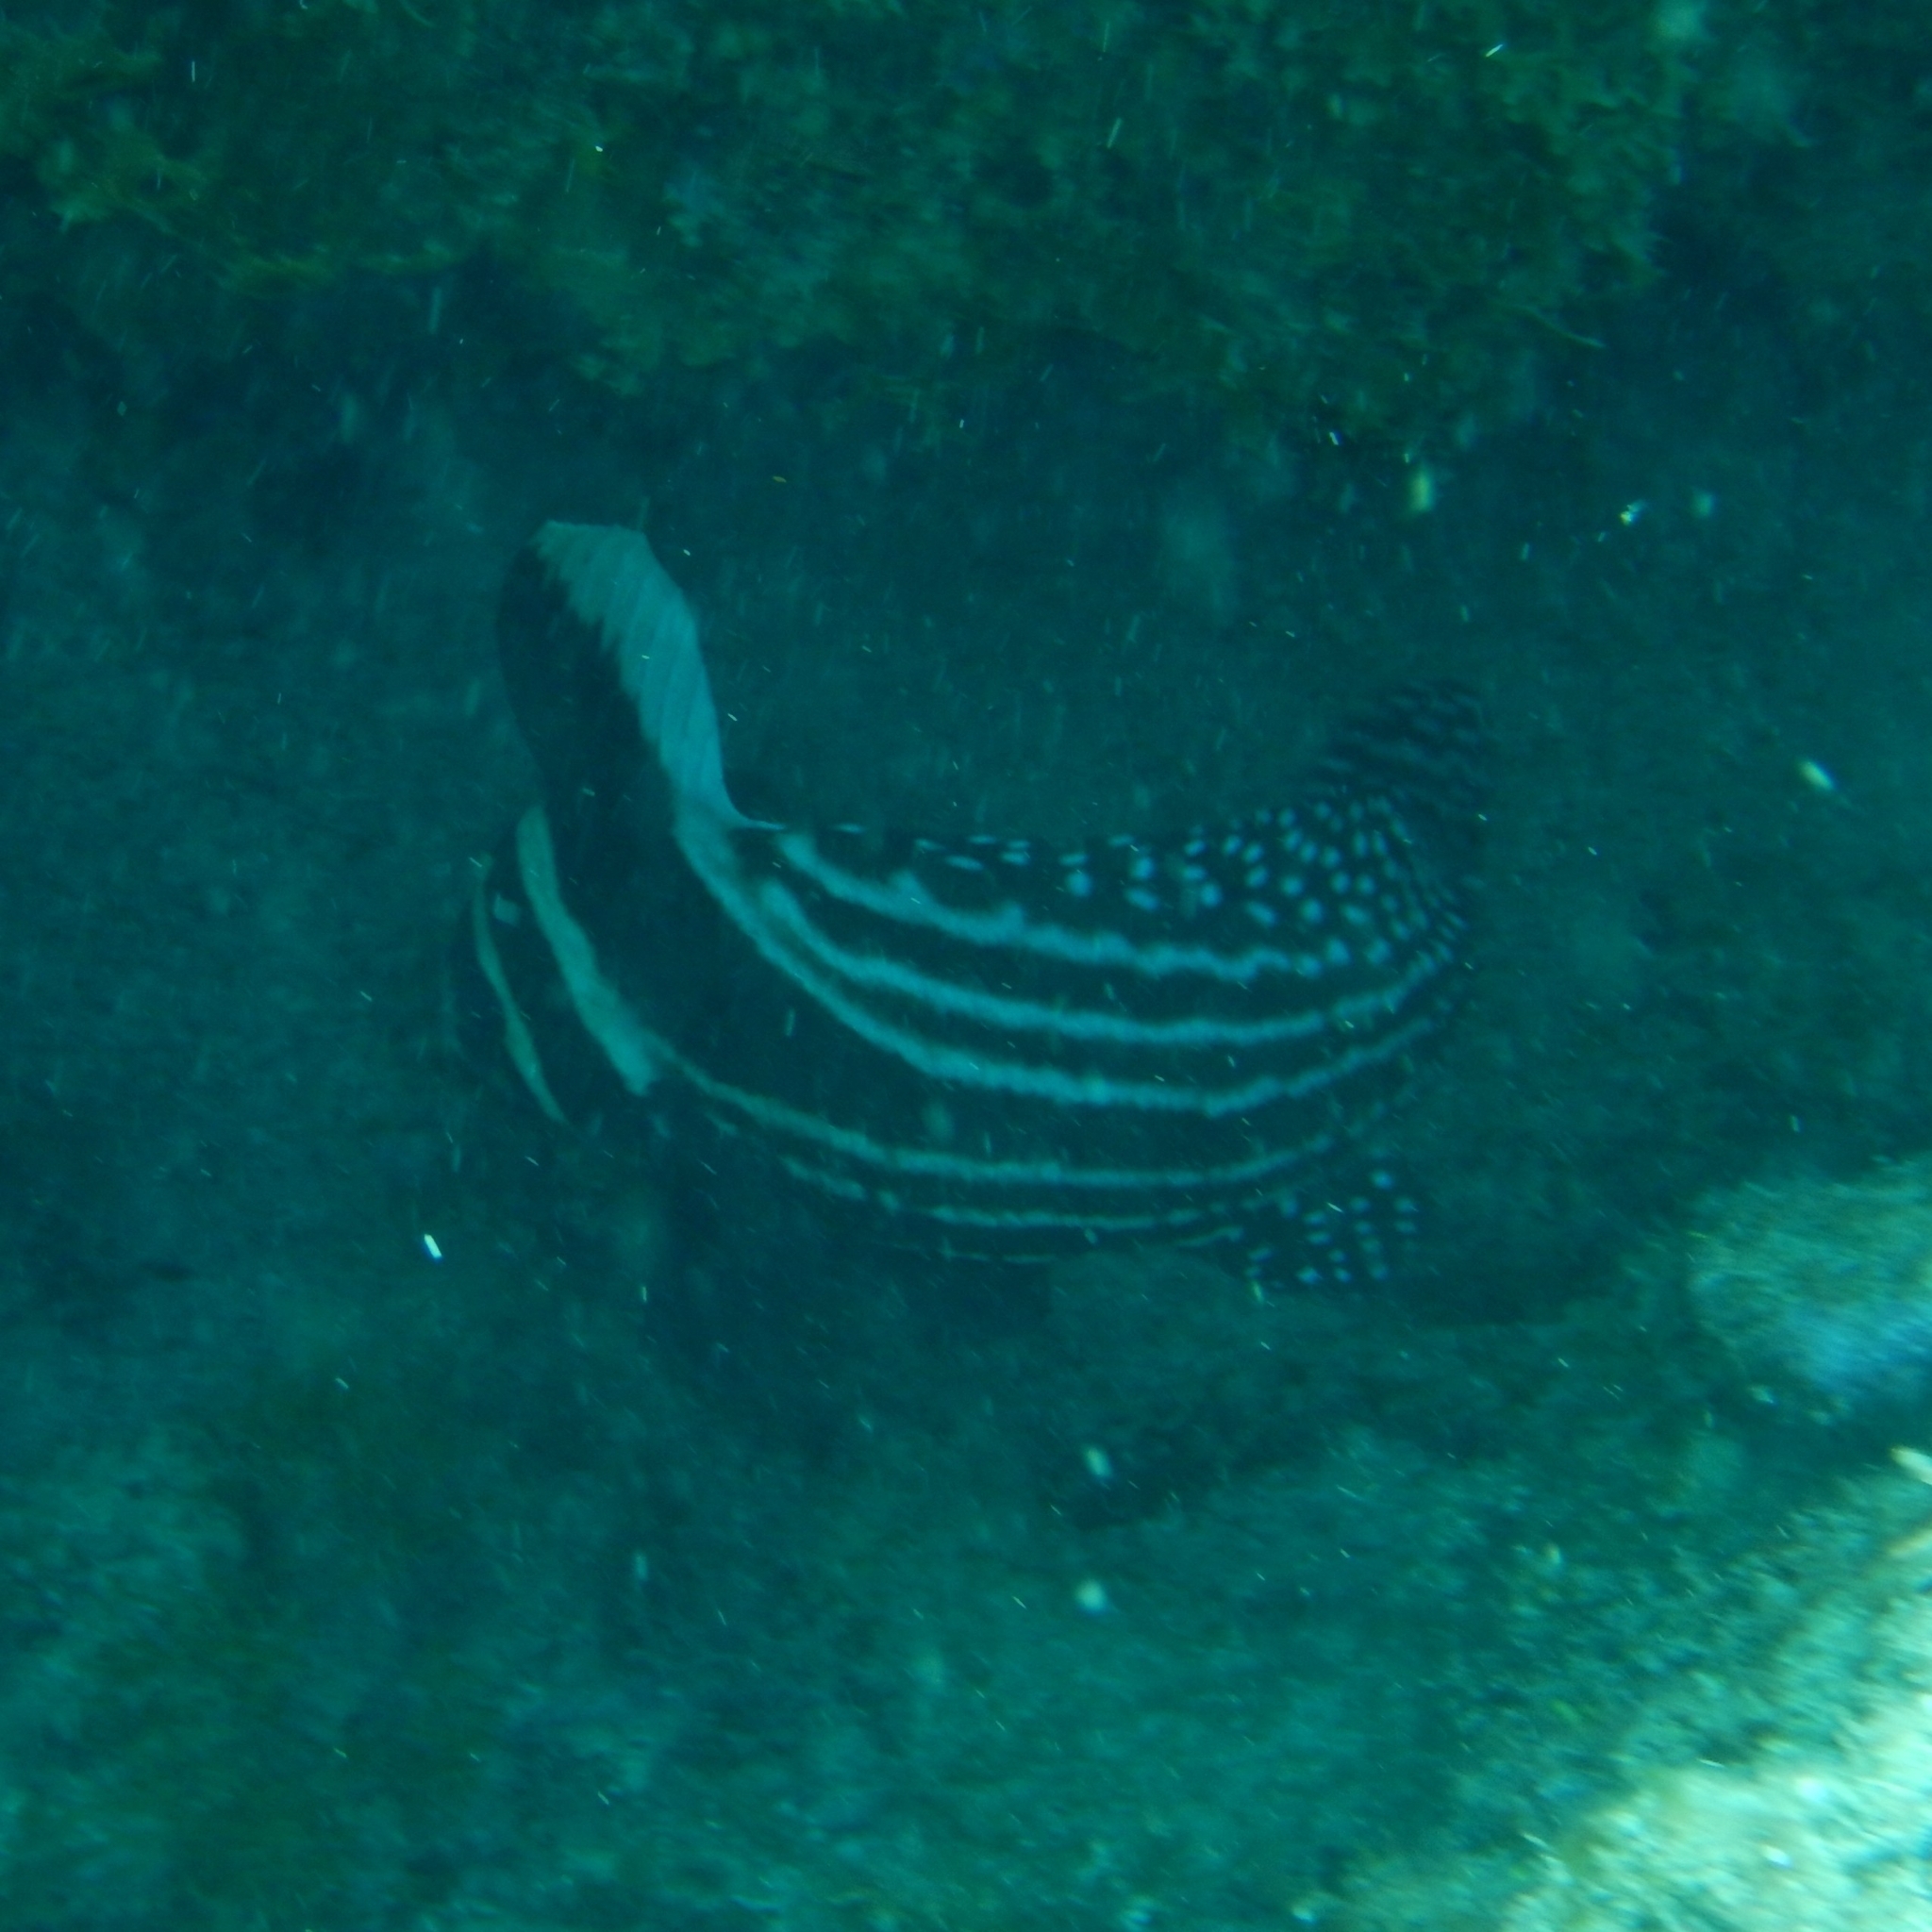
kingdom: Animalia
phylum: Chordata
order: Perciformes
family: Sciaenidae
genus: Equetus
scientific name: Equetus punctatus
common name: Spotted drum
